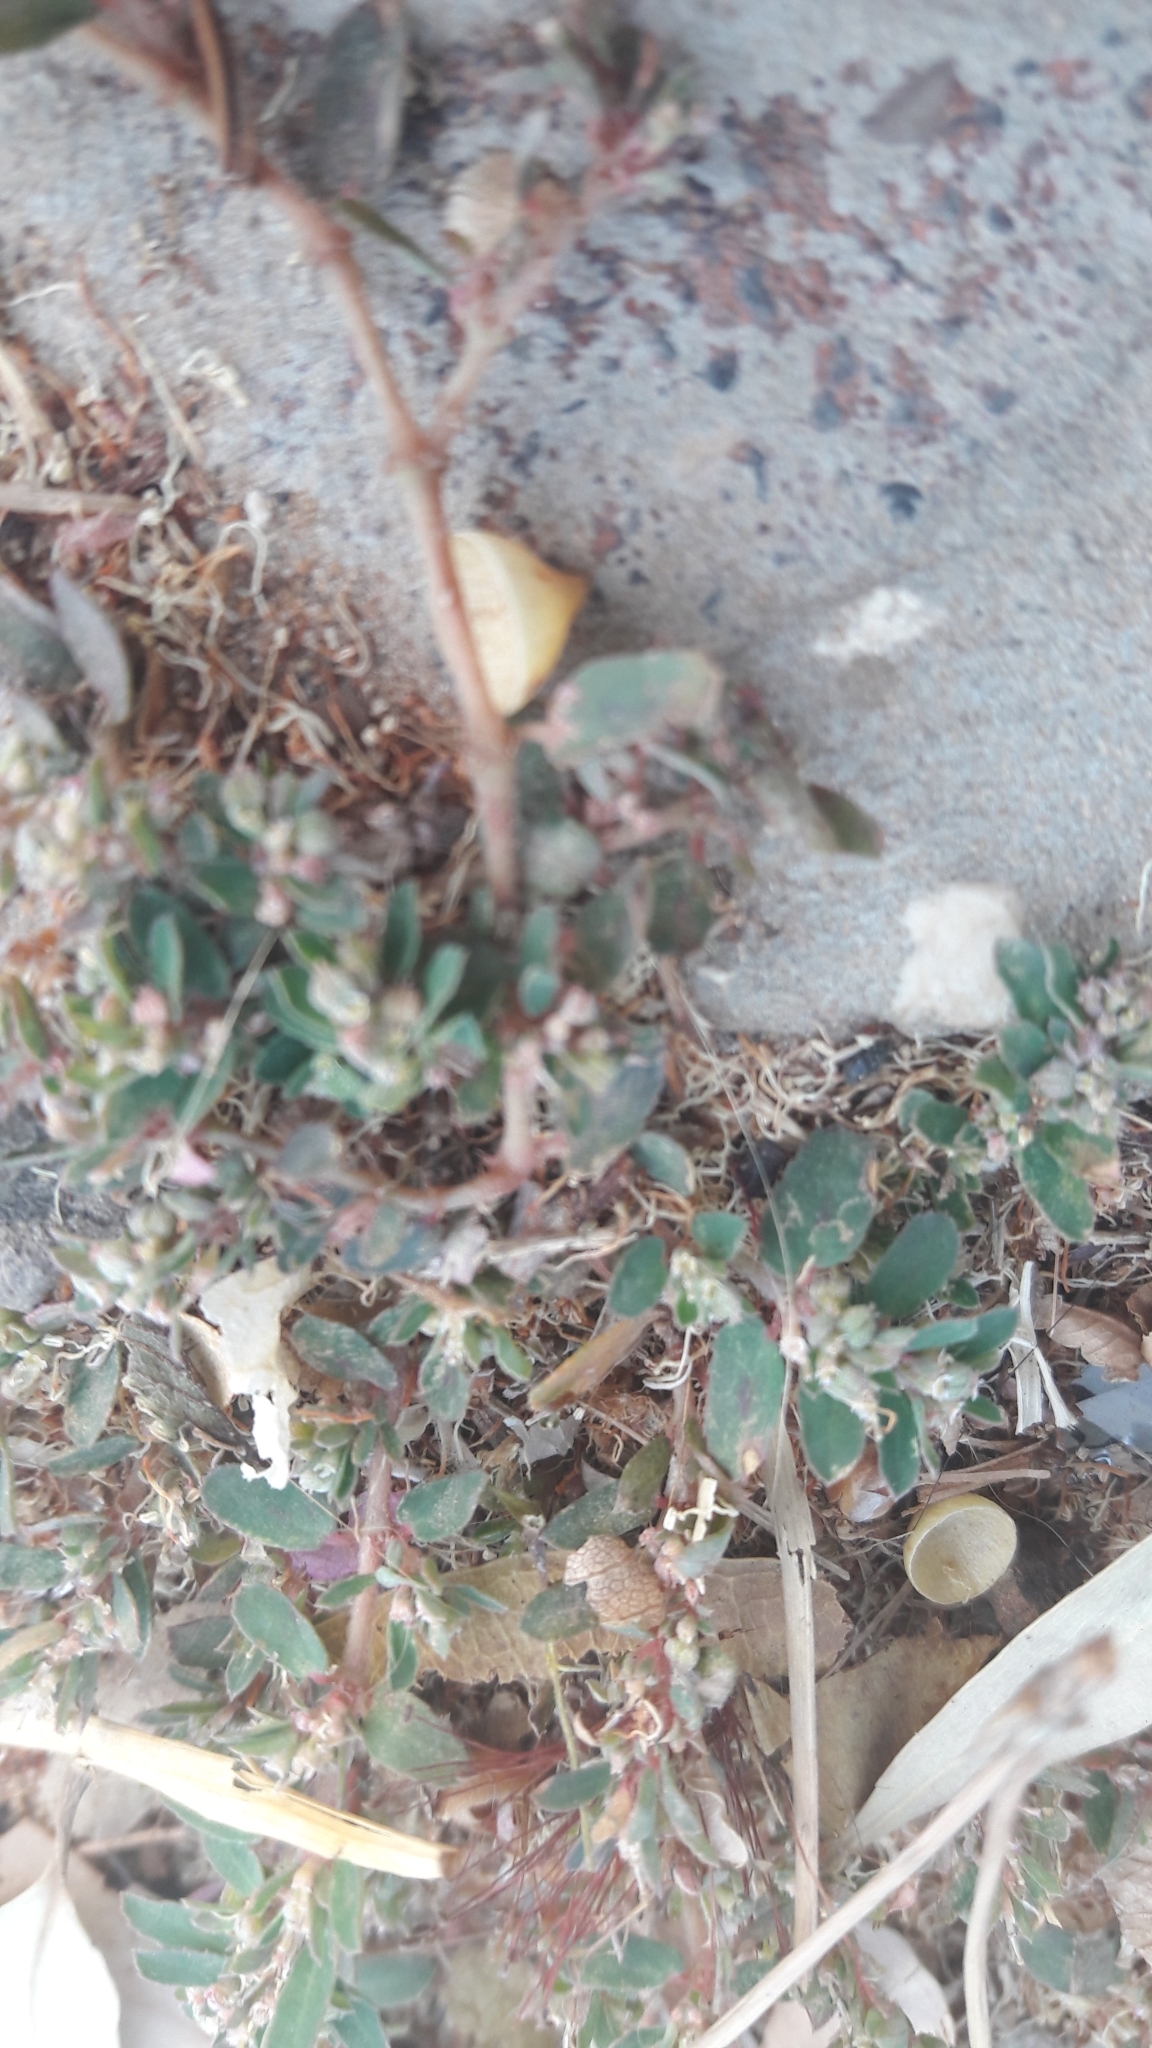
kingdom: Plantae
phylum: Tracheophyta
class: Magnoliopsida
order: Malpighiales
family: Euphorbiaceae
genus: Euphorbia
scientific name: Euphorbia maculata
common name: Spotted spurge
